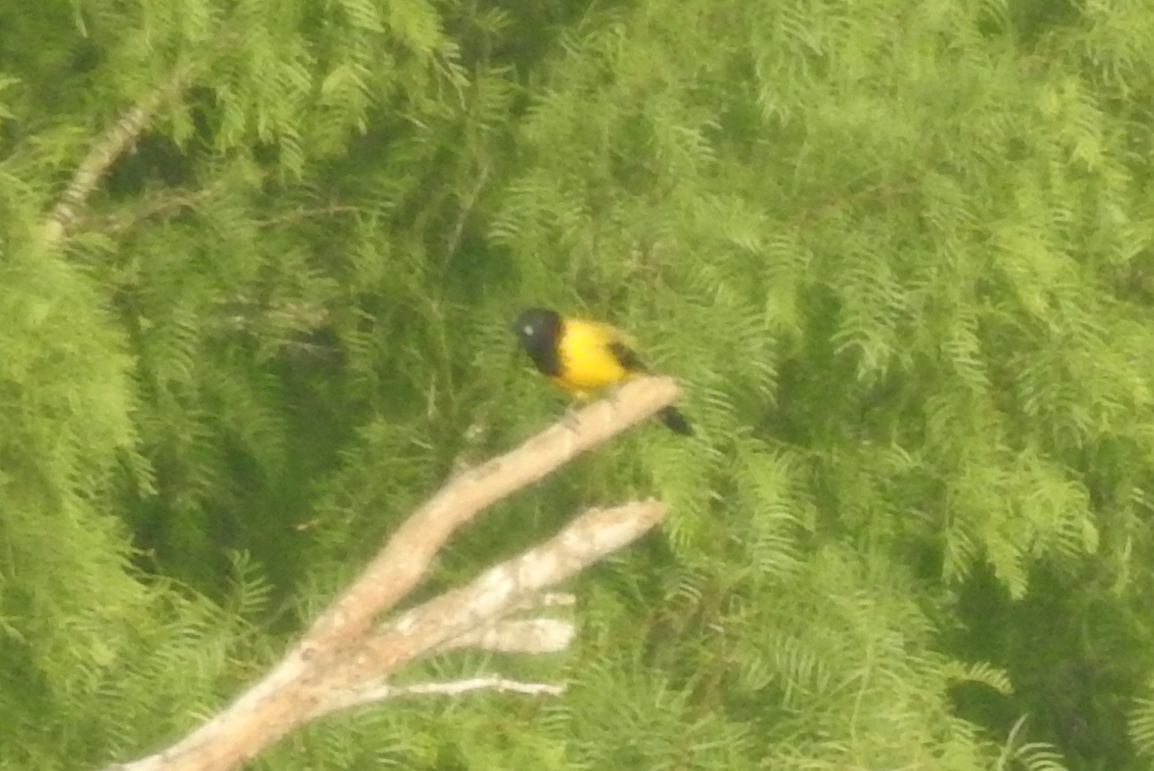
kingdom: Animalia
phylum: Chordata
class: Aves
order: Passeriformes
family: Icteridae
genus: Icterus
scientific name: Icterus graduacauda
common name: Audubon's oriole
